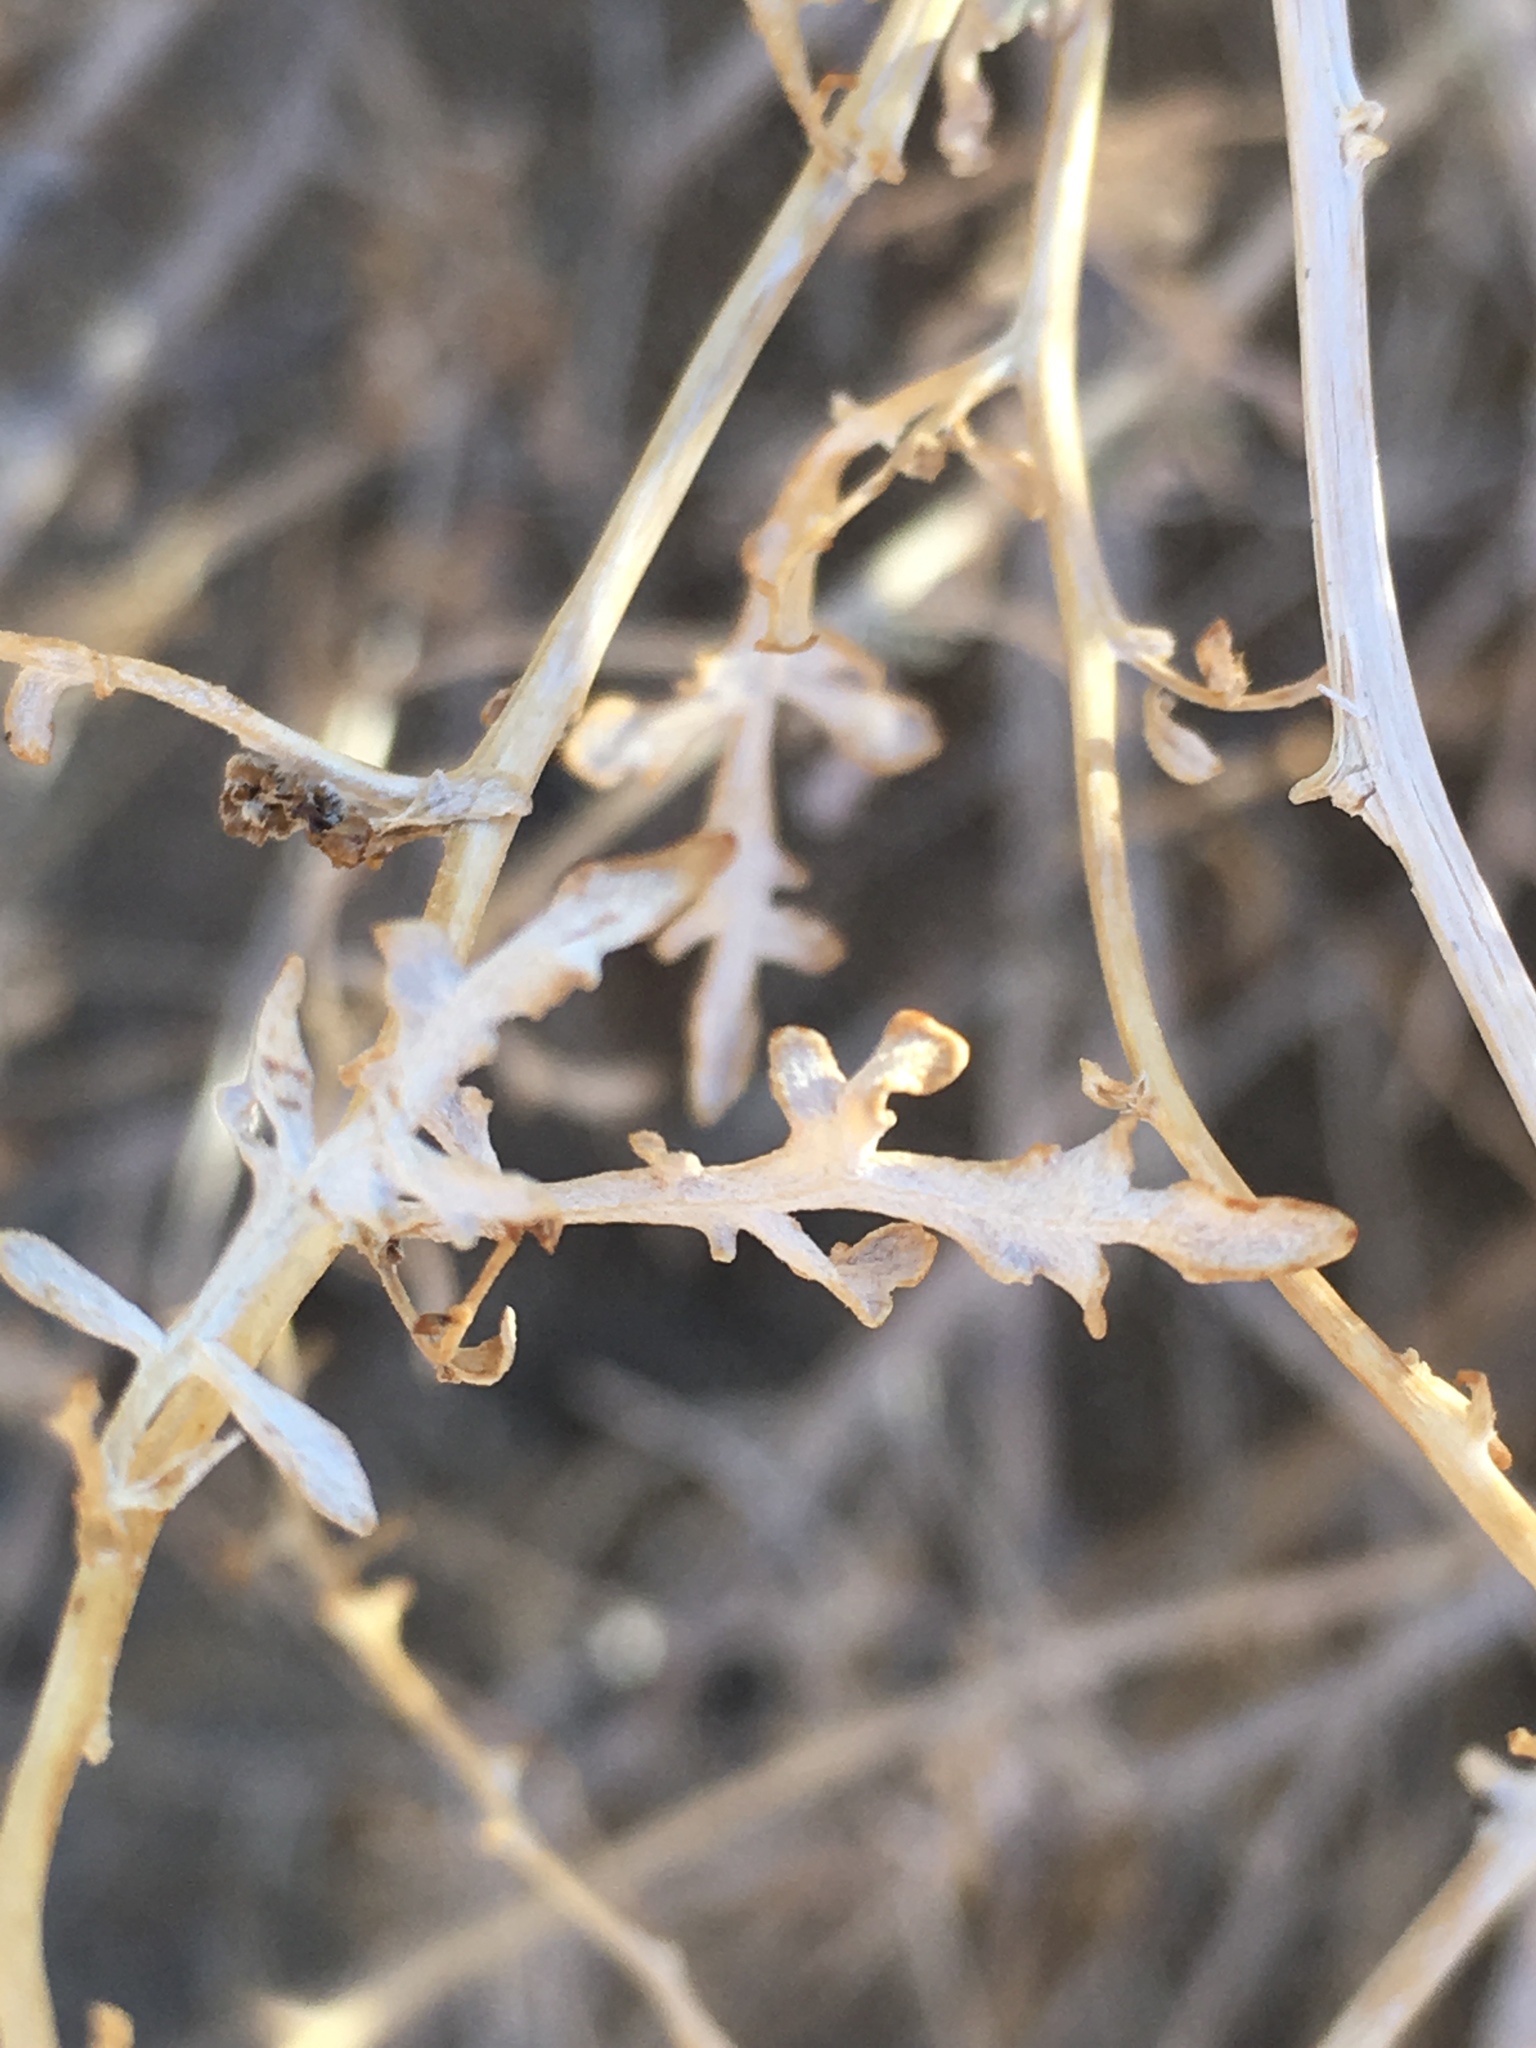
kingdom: Plantae
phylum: Tracheophyta
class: Magnoliopsida
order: Asterales
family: Asteraceae
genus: Ambrosia
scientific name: Ambrosia dumosa
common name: Bur-sage
